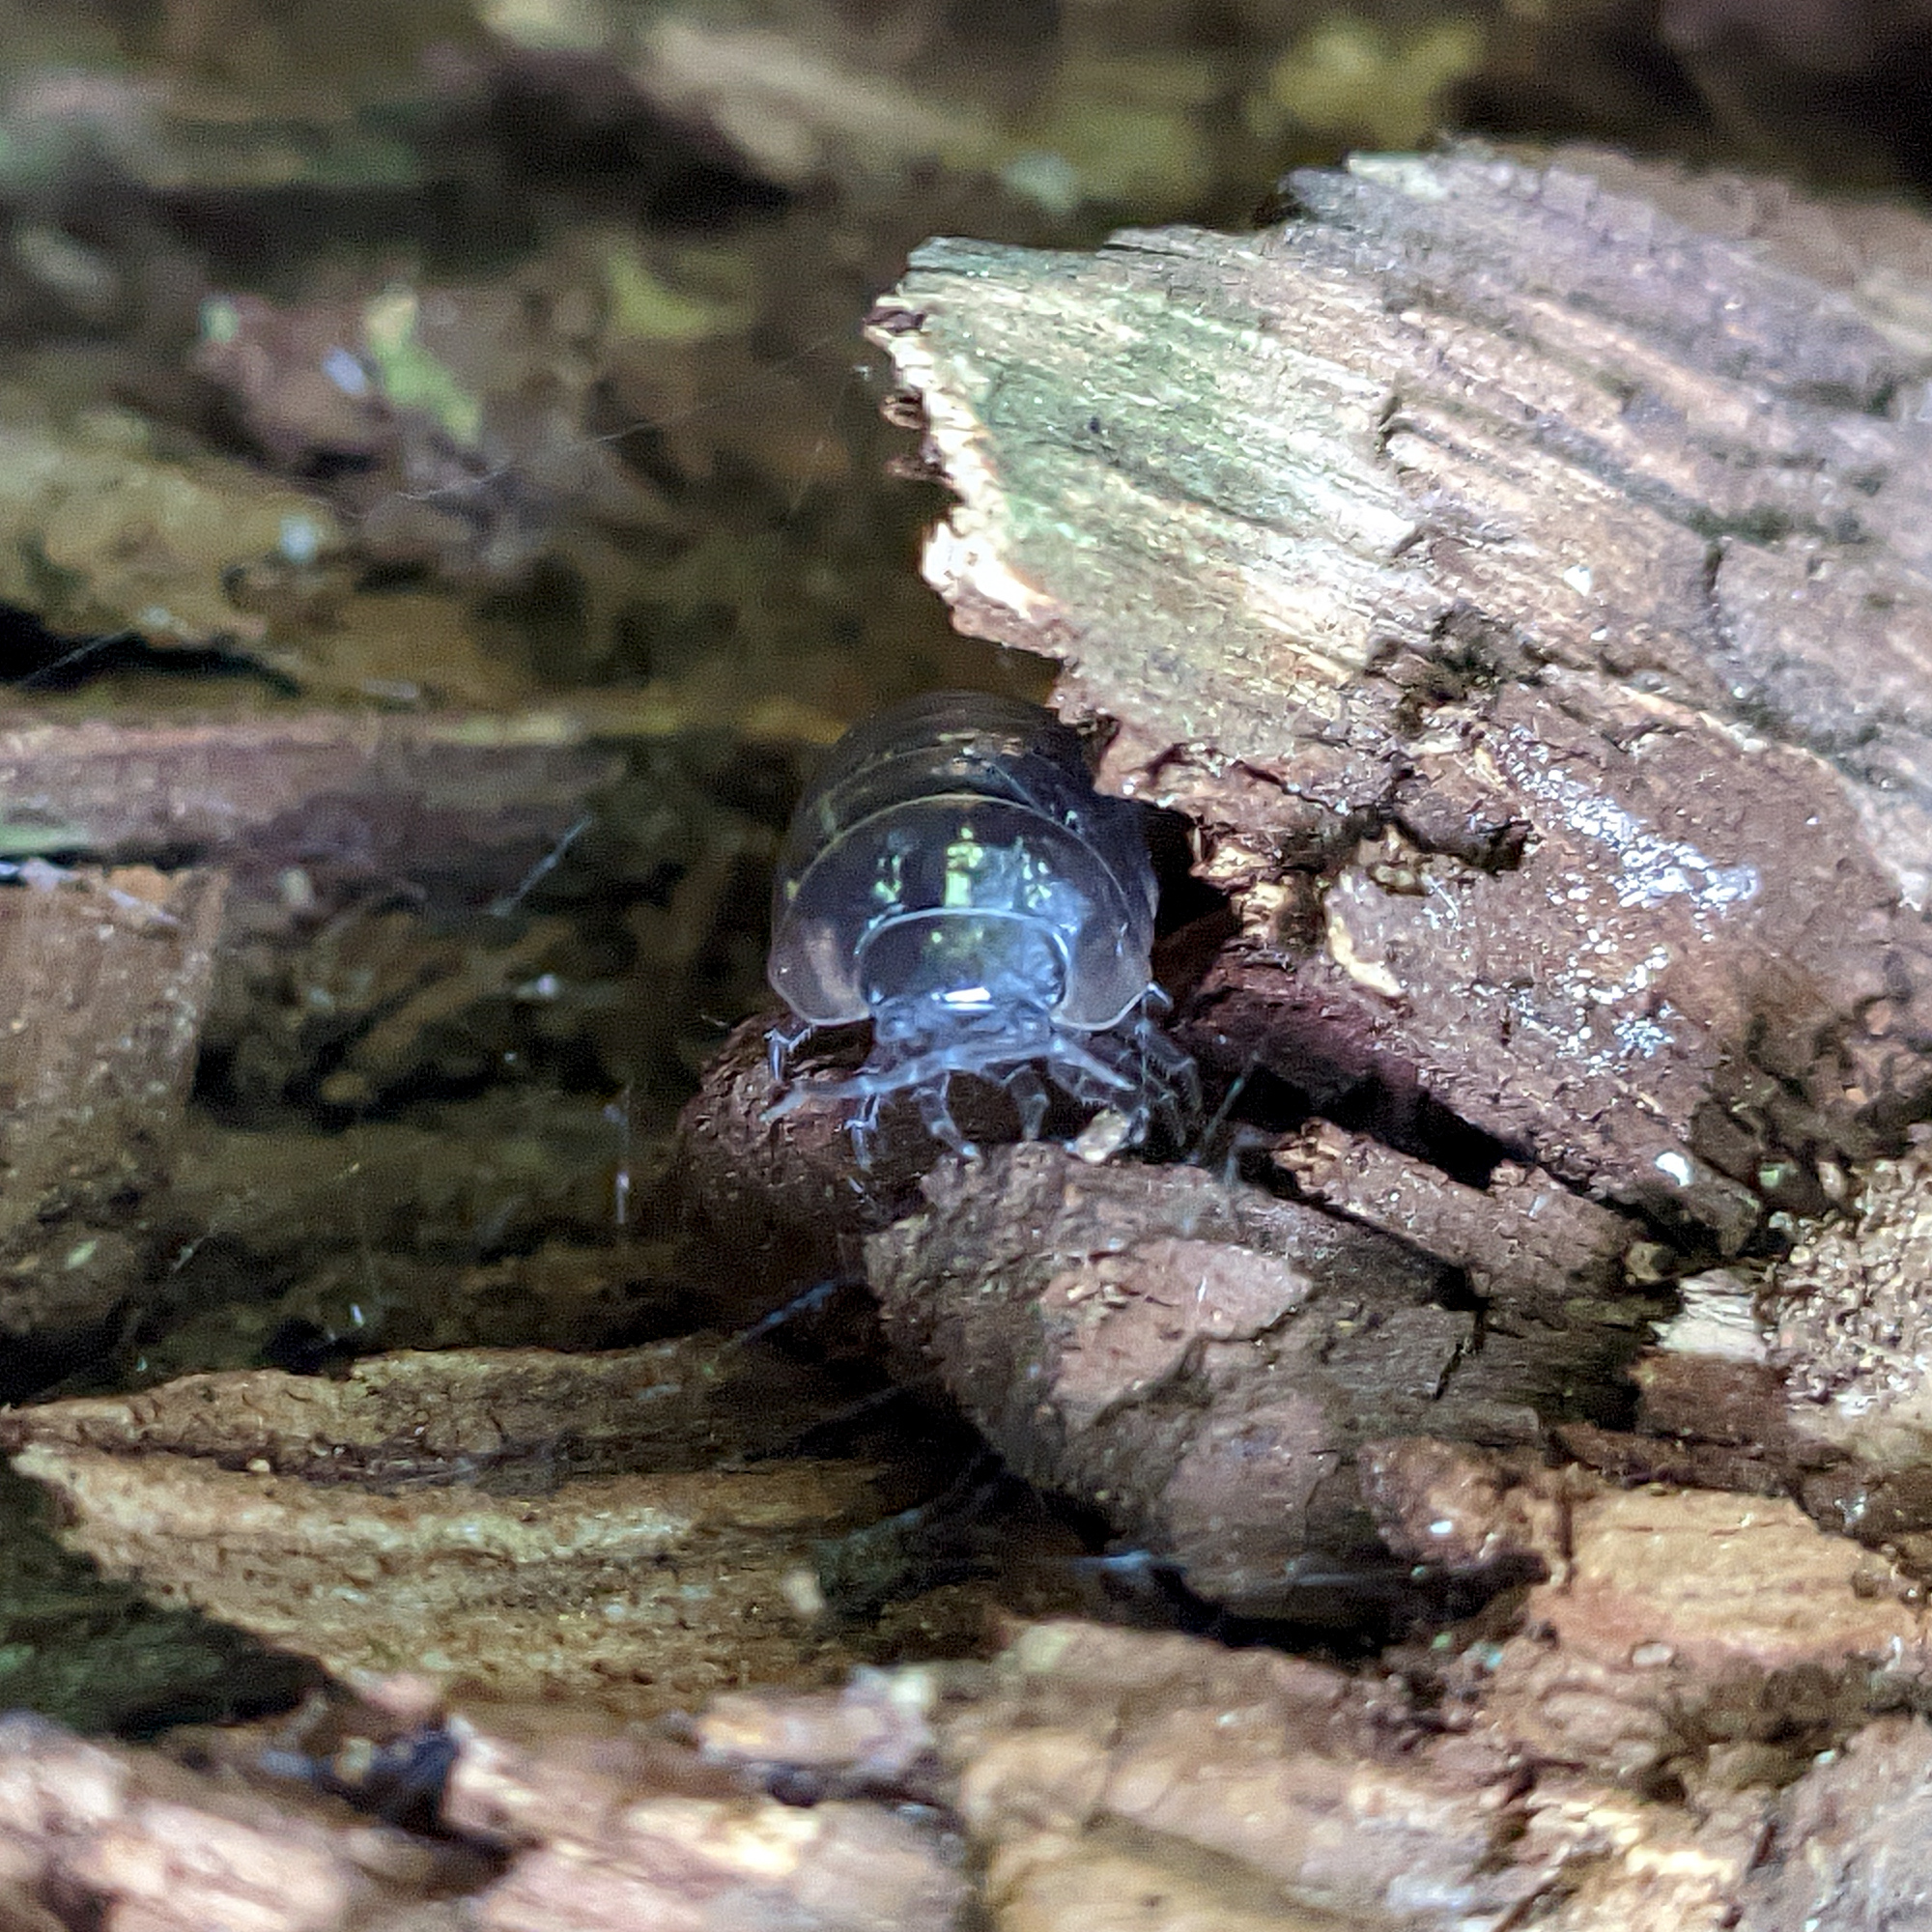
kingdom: Animalia
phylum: Arthropoda
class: Malacostraca
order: Isopoda
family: Armadillidiidae
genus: Armadillidium
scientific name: Armadillidium vulgare
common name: Common pill woodlouse
